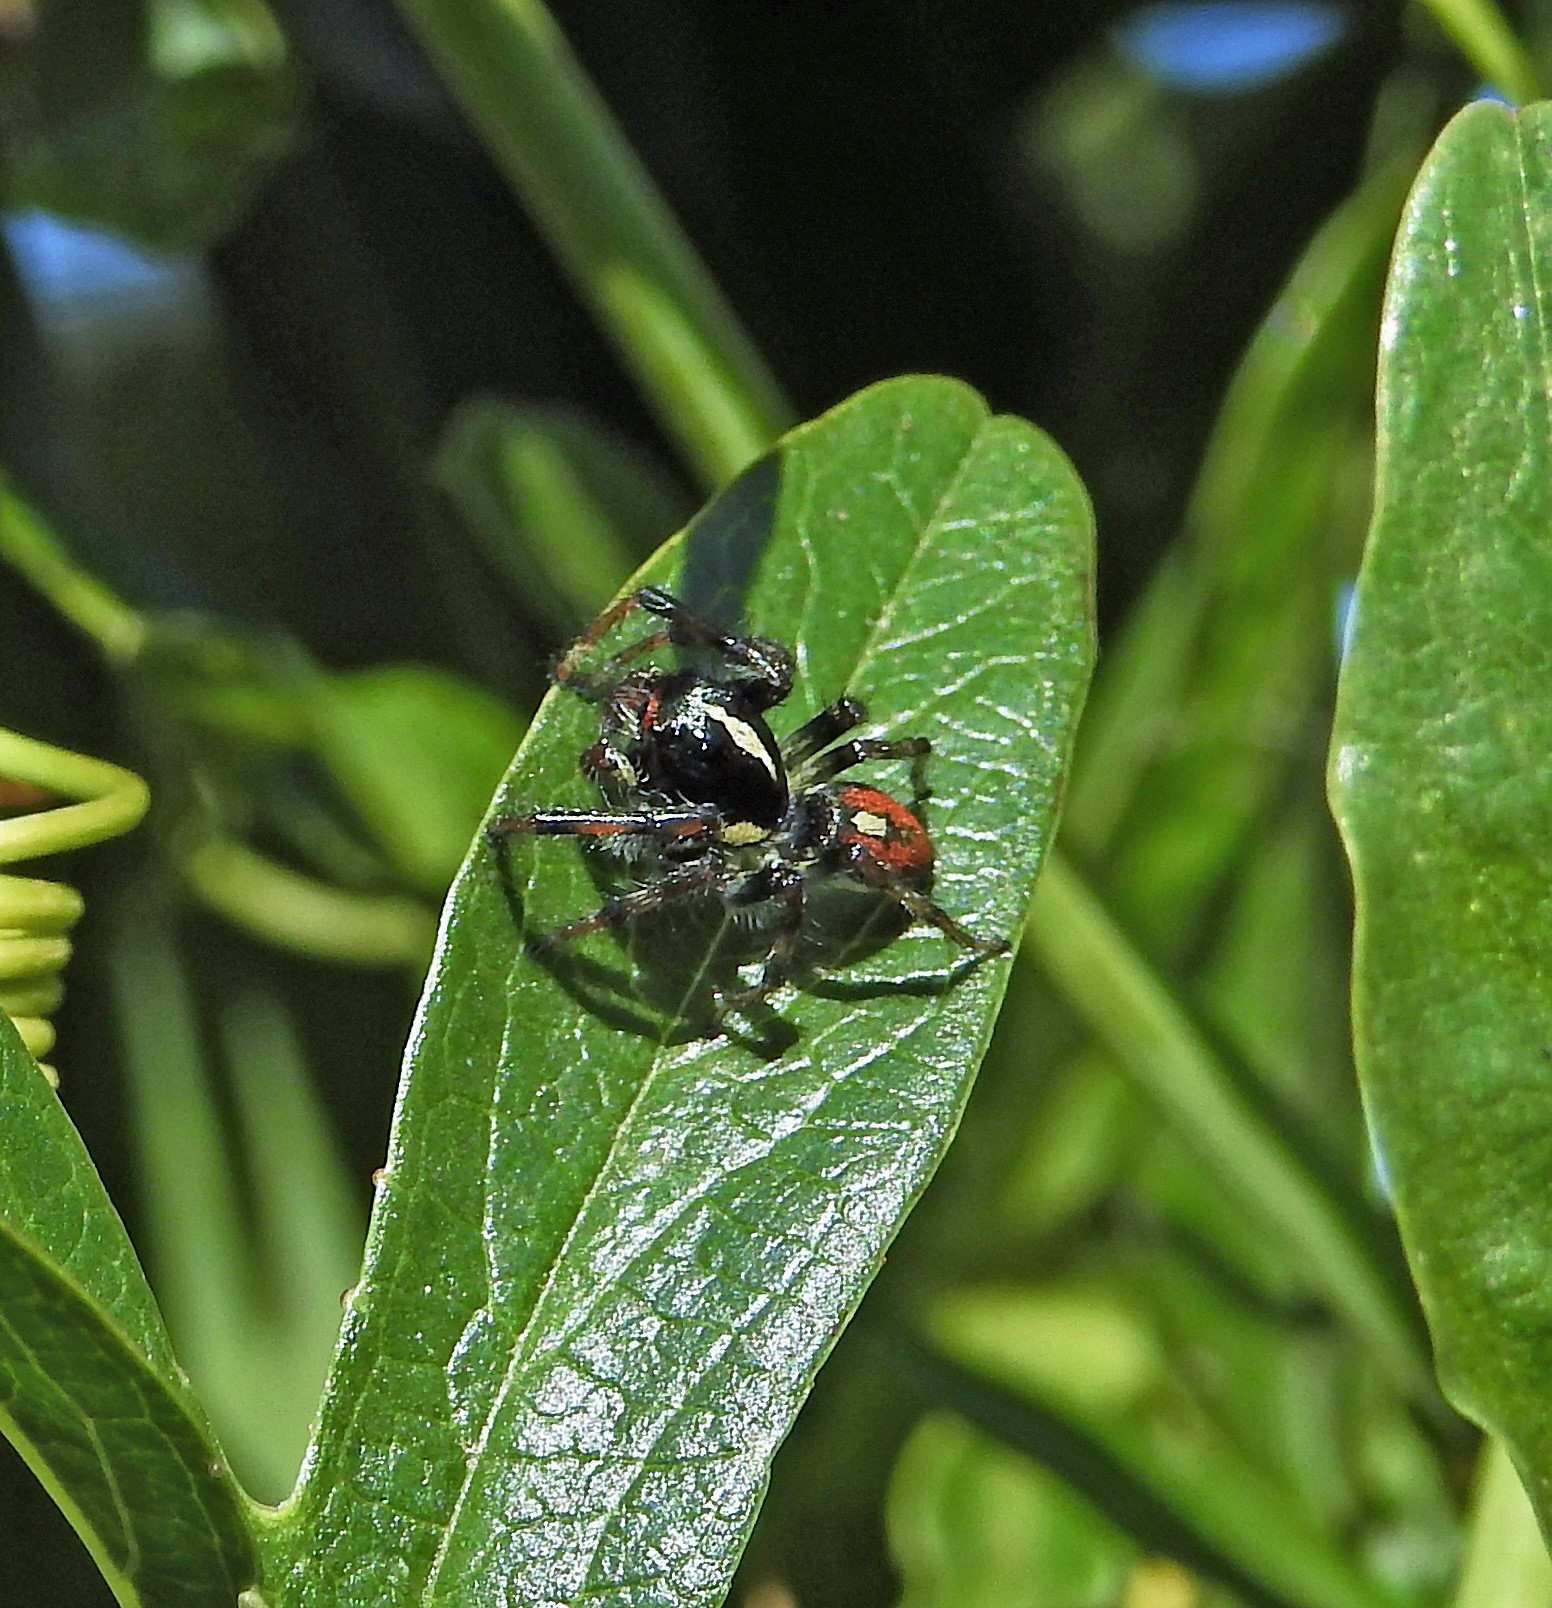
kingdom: Animalia
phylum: Arthropoda
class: Arachnida
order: Araneae
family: Salticidae
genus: Frigga
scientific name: Frigga quintensis
